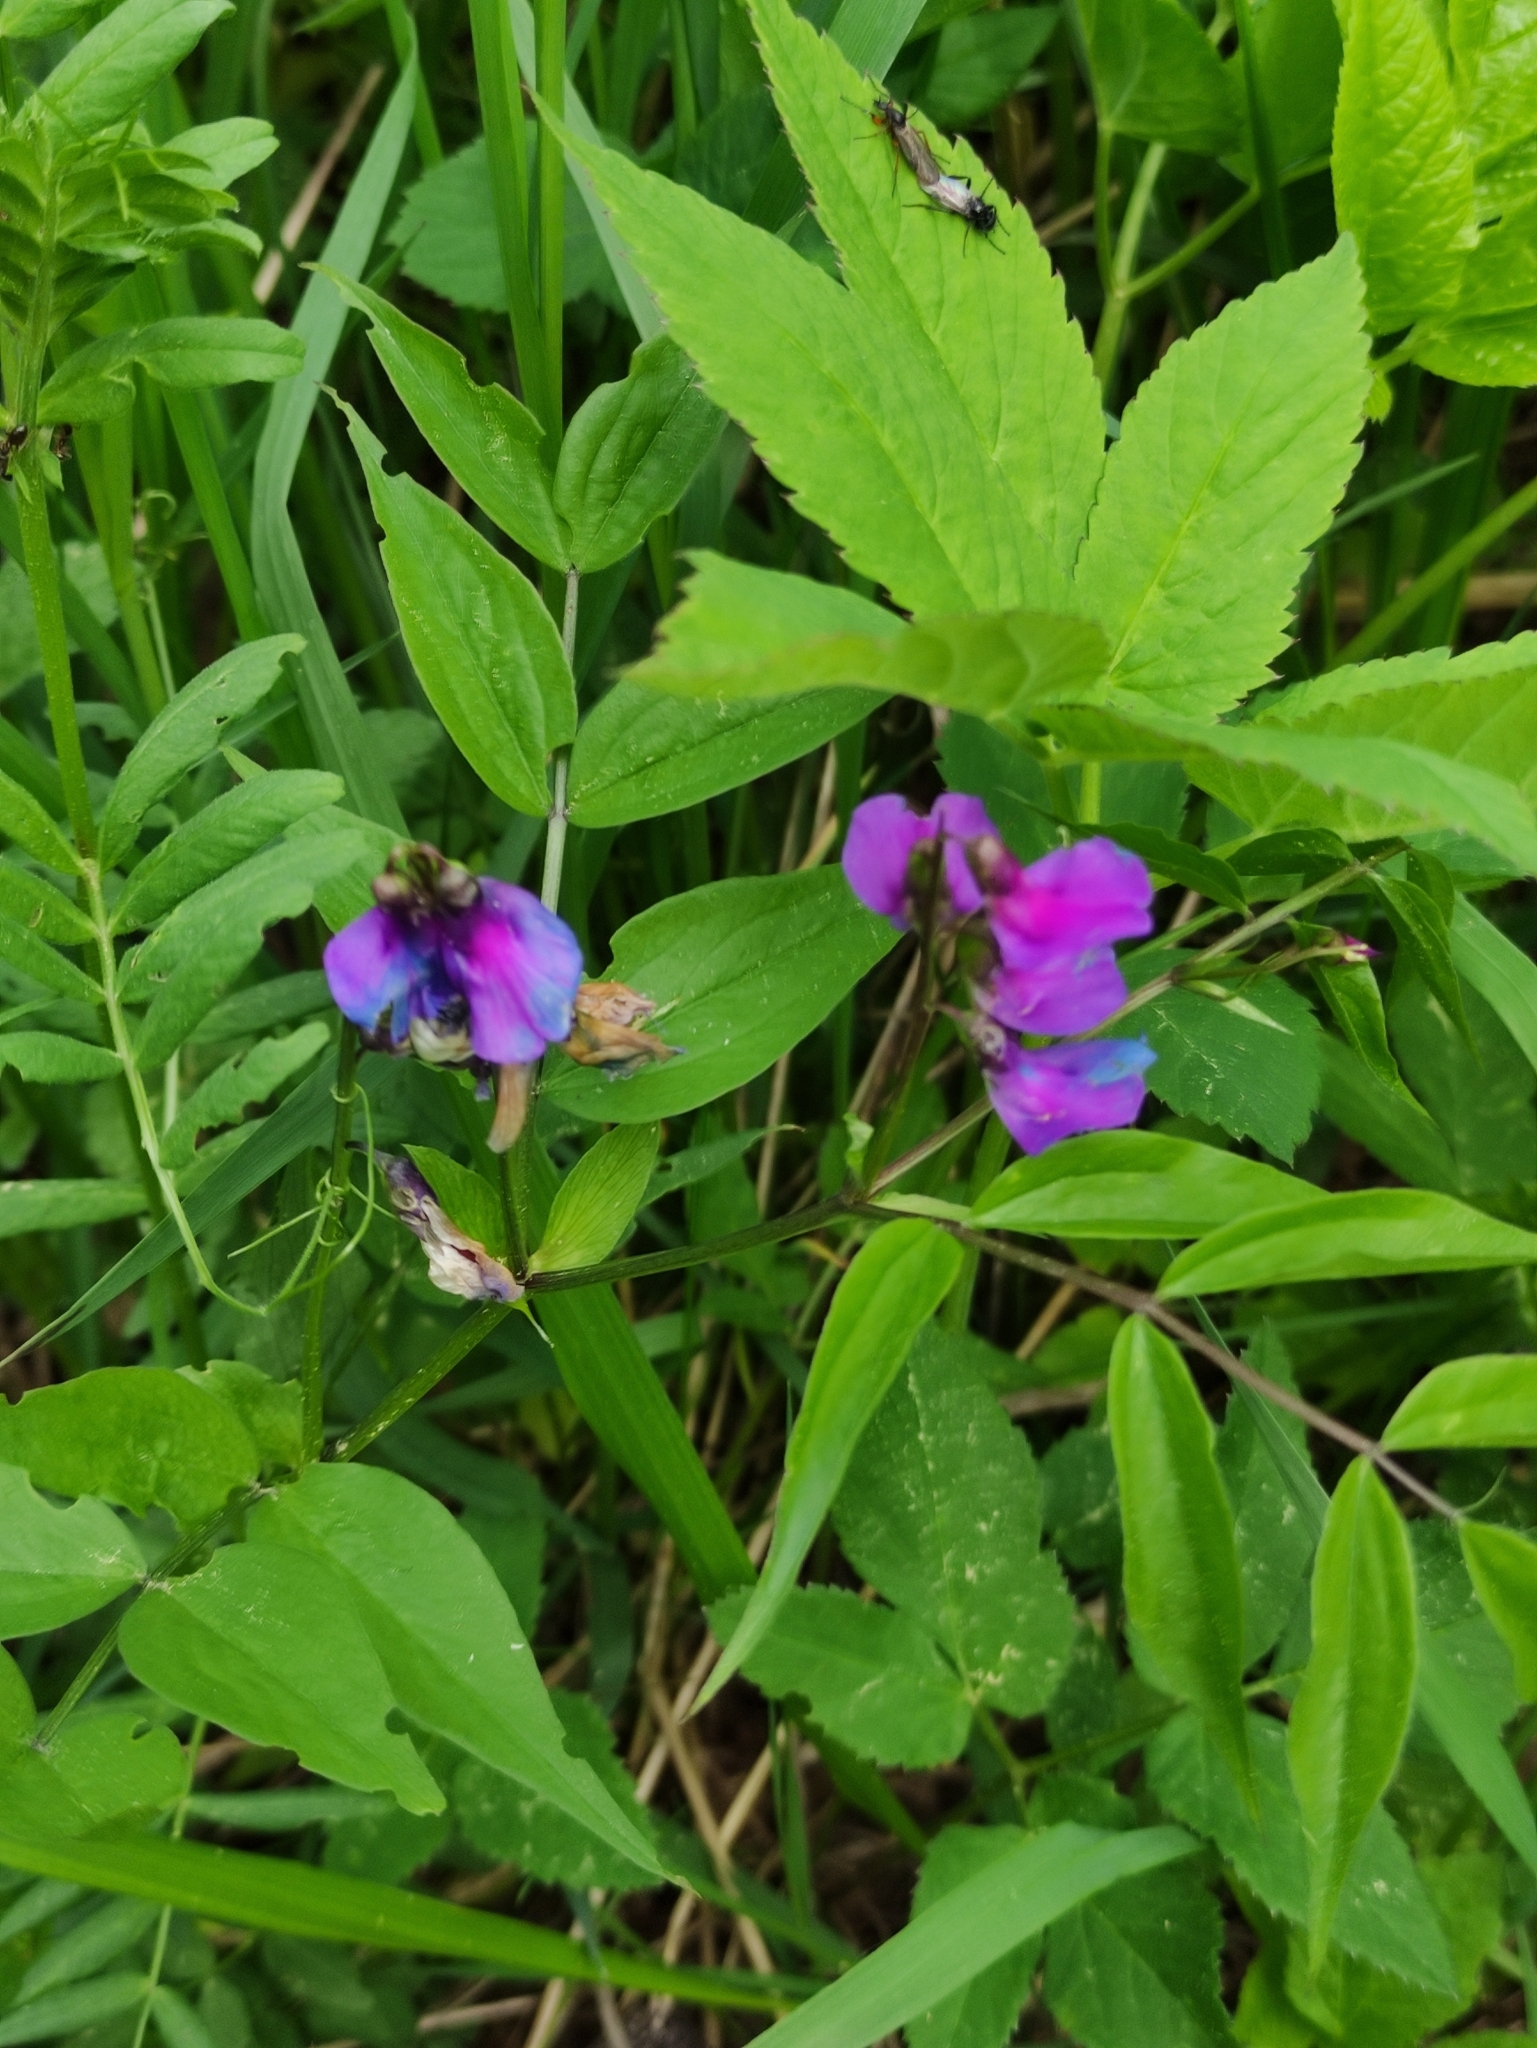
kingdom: Plantae
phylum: Tracheophyta
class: Magnoliopsida
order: Fabales
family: Fabaceae
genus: Lathyrus
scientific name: Lathyrus vernus
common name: Spring pea
